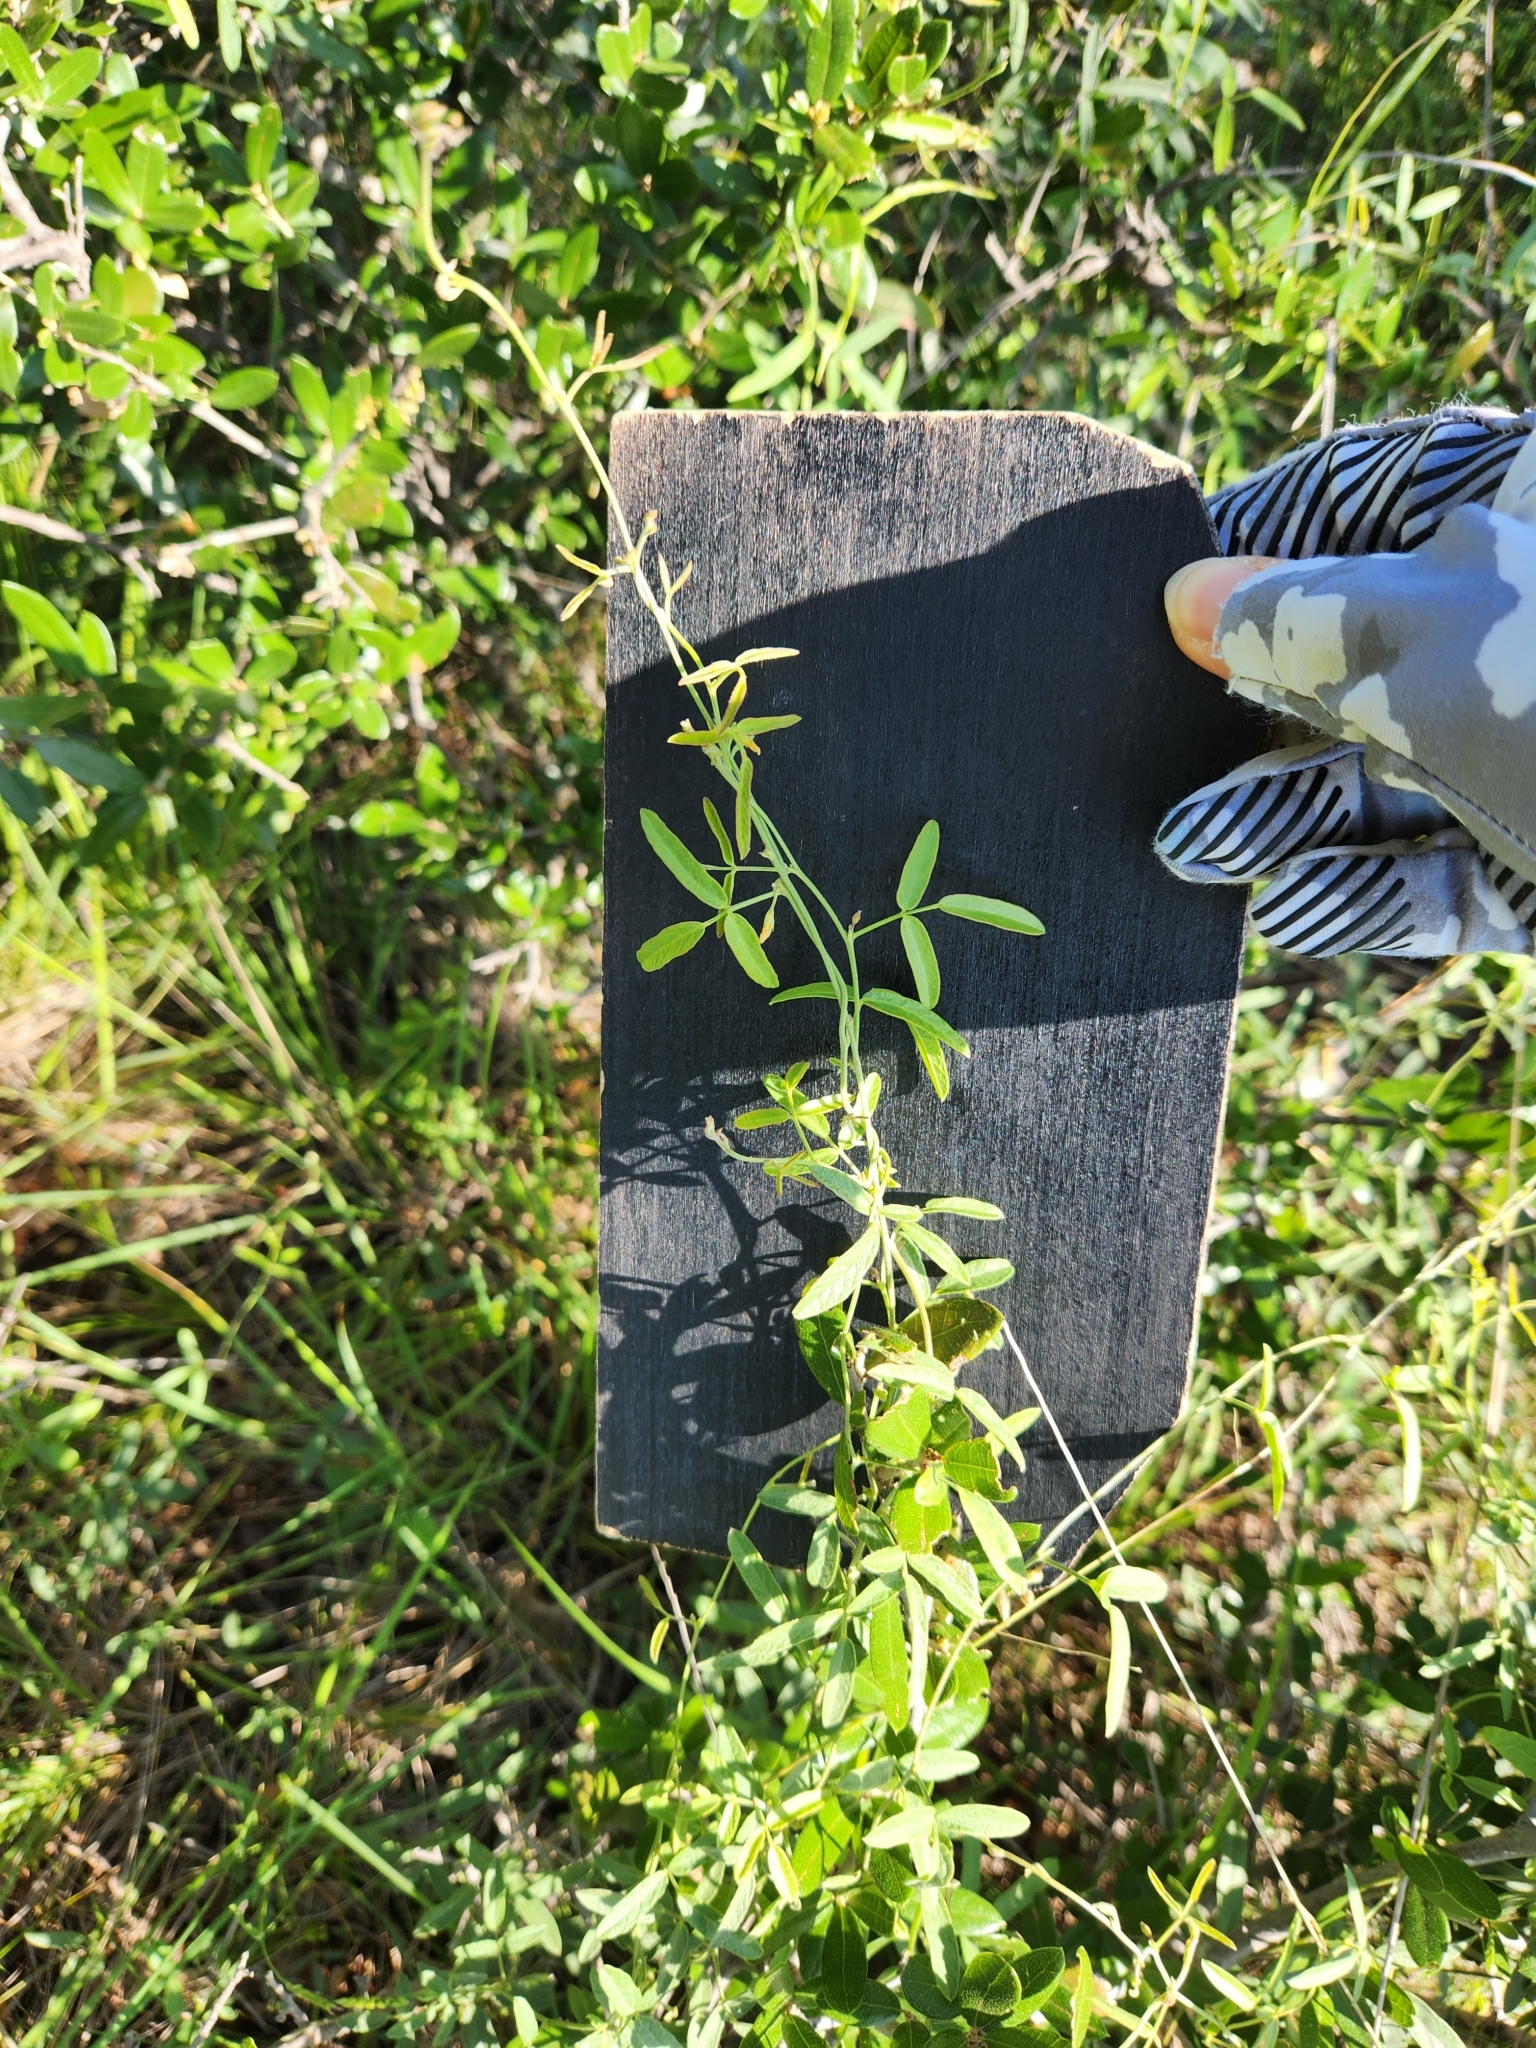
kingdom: Plantae
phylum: Tracheophyta
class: Magnoliopsida
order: Fabales
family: Fabaceae
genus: Rhynchosia
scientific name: Rhynchosia senna
